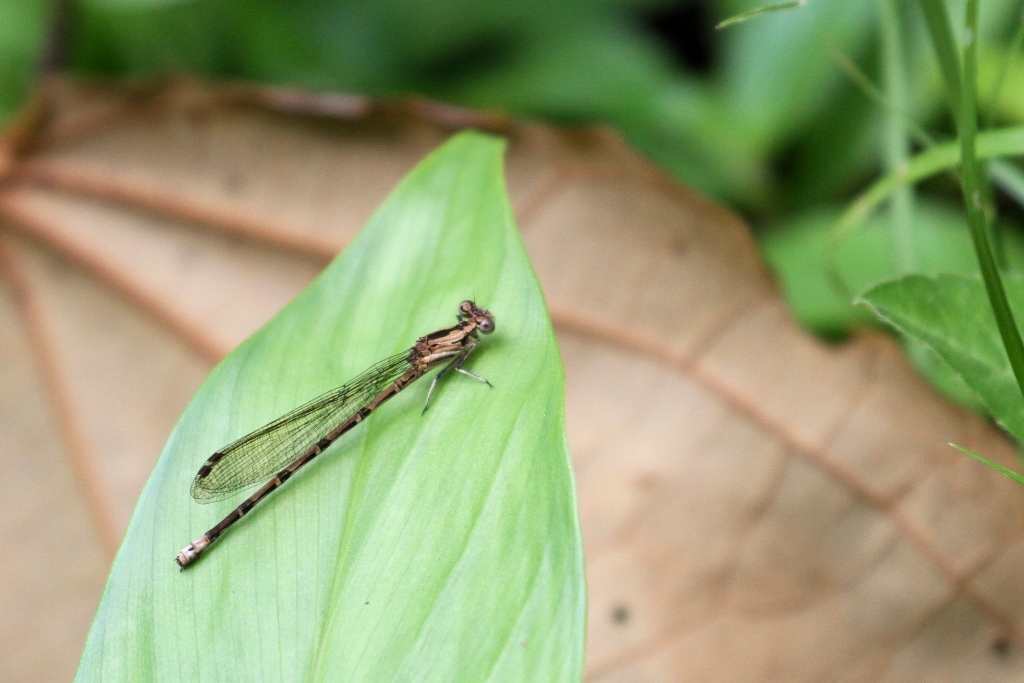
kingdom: Animalia
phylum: Arthropoda
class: Insecta
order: Odonata
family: Coenagrionidae
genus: Argia
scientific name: Argia elongata
